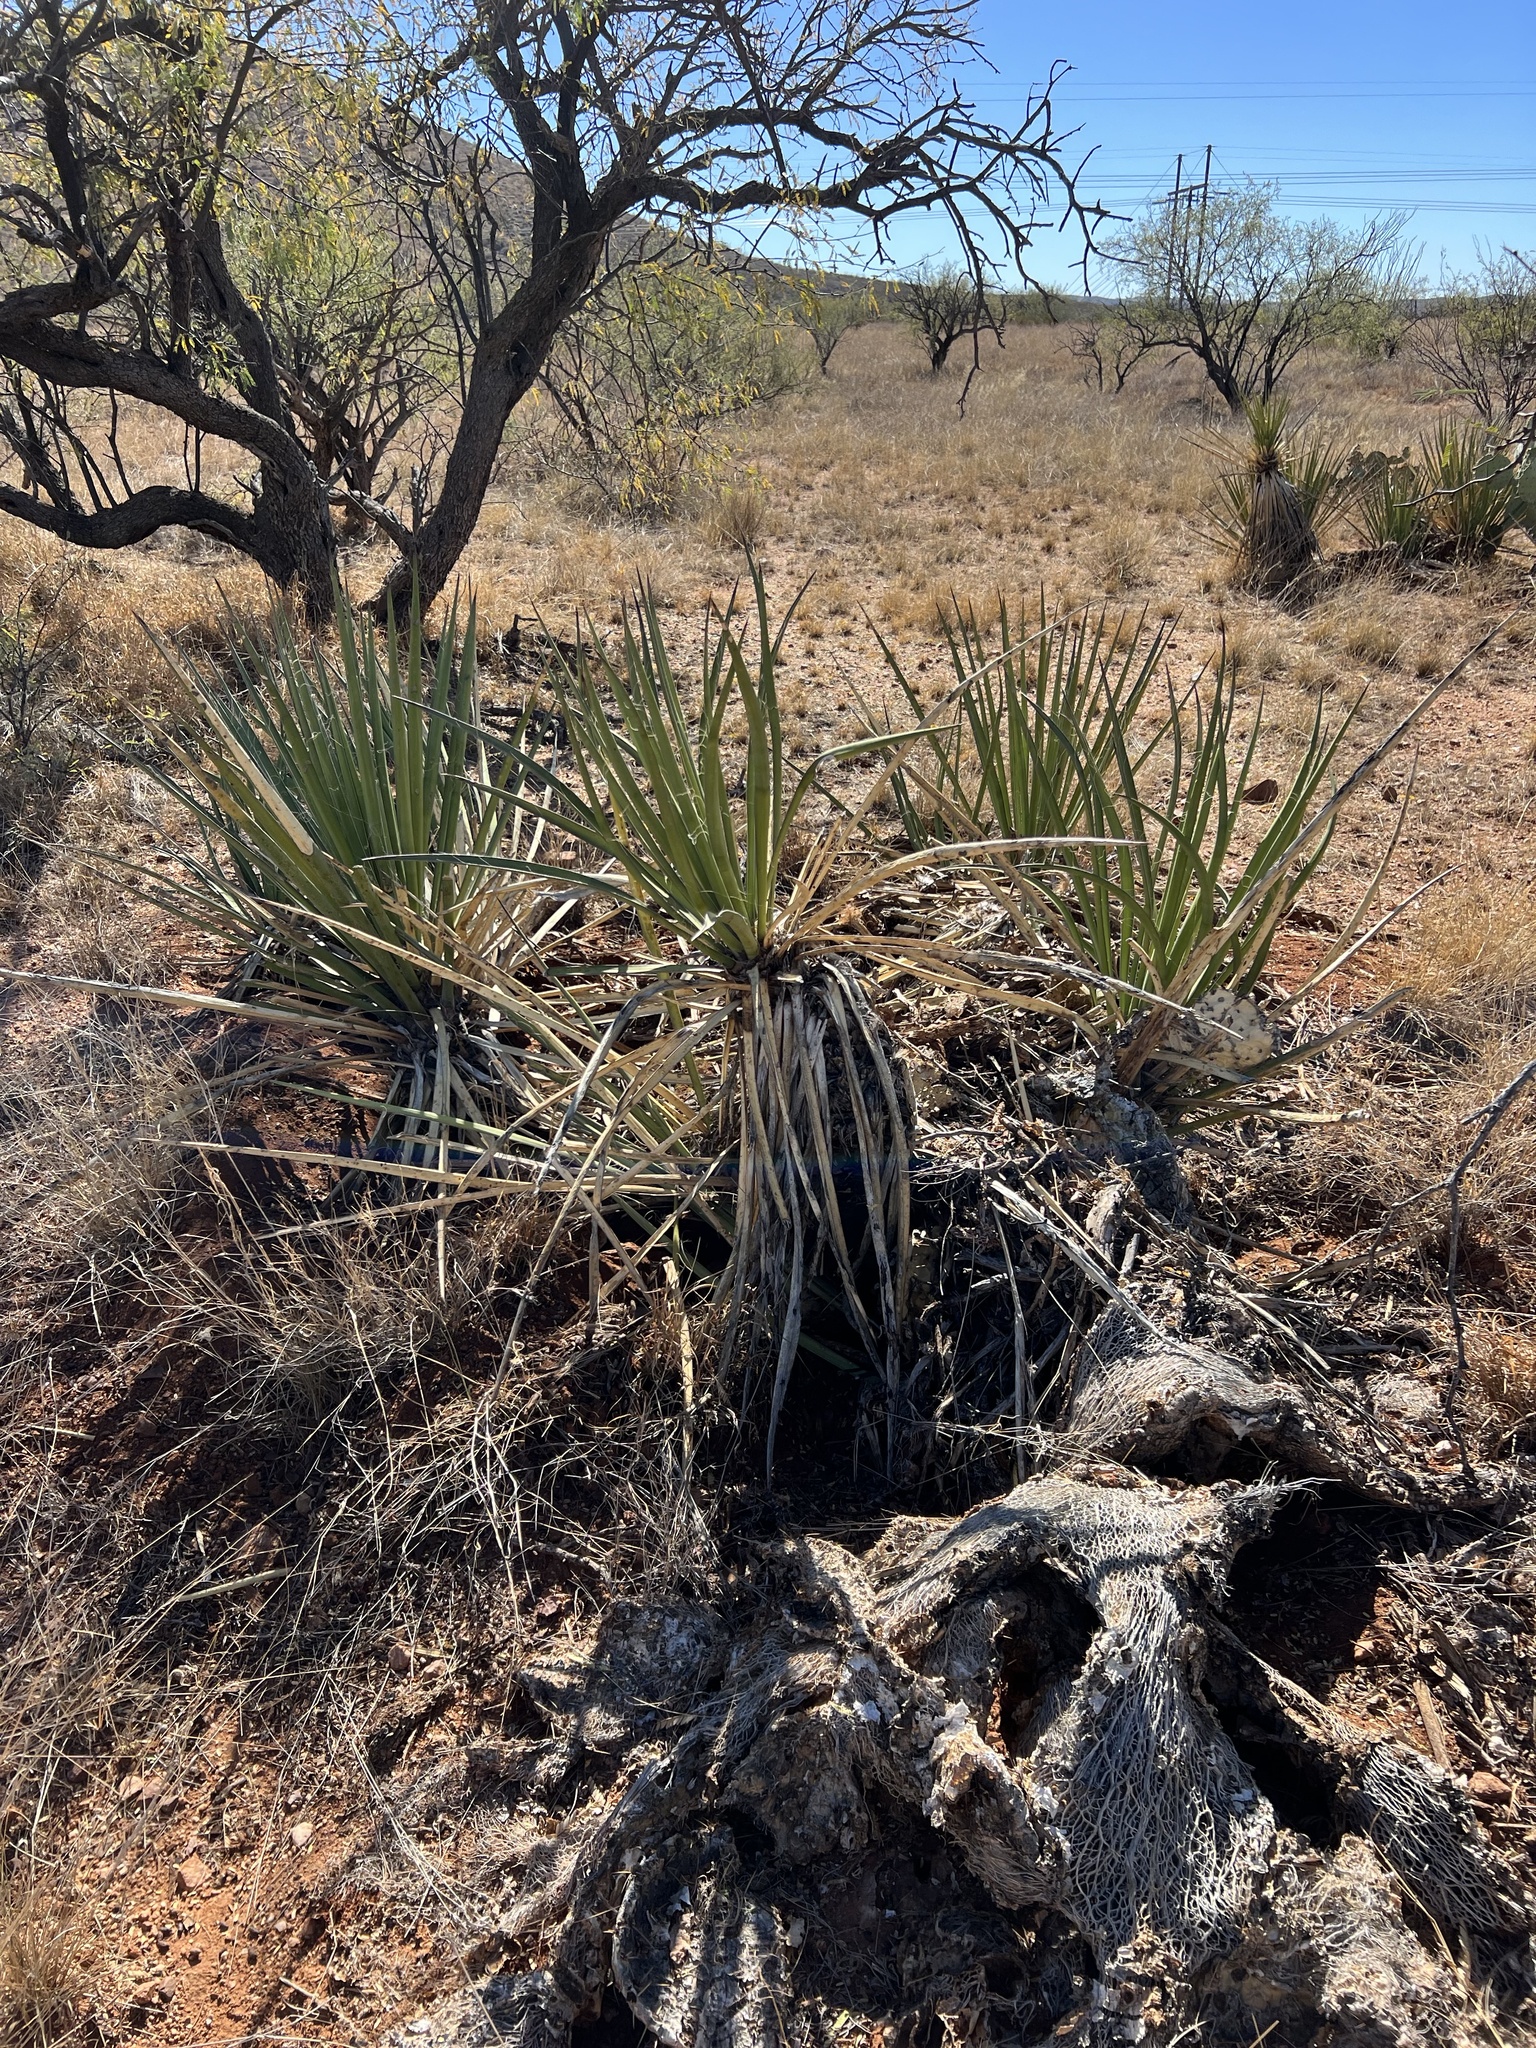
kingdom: Plantae
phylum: Tracheophyta
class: Liliopsida
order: Asparagales
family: Asparagaceae
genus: Yucca
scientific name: Yucca baccata
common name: Banana yucca
